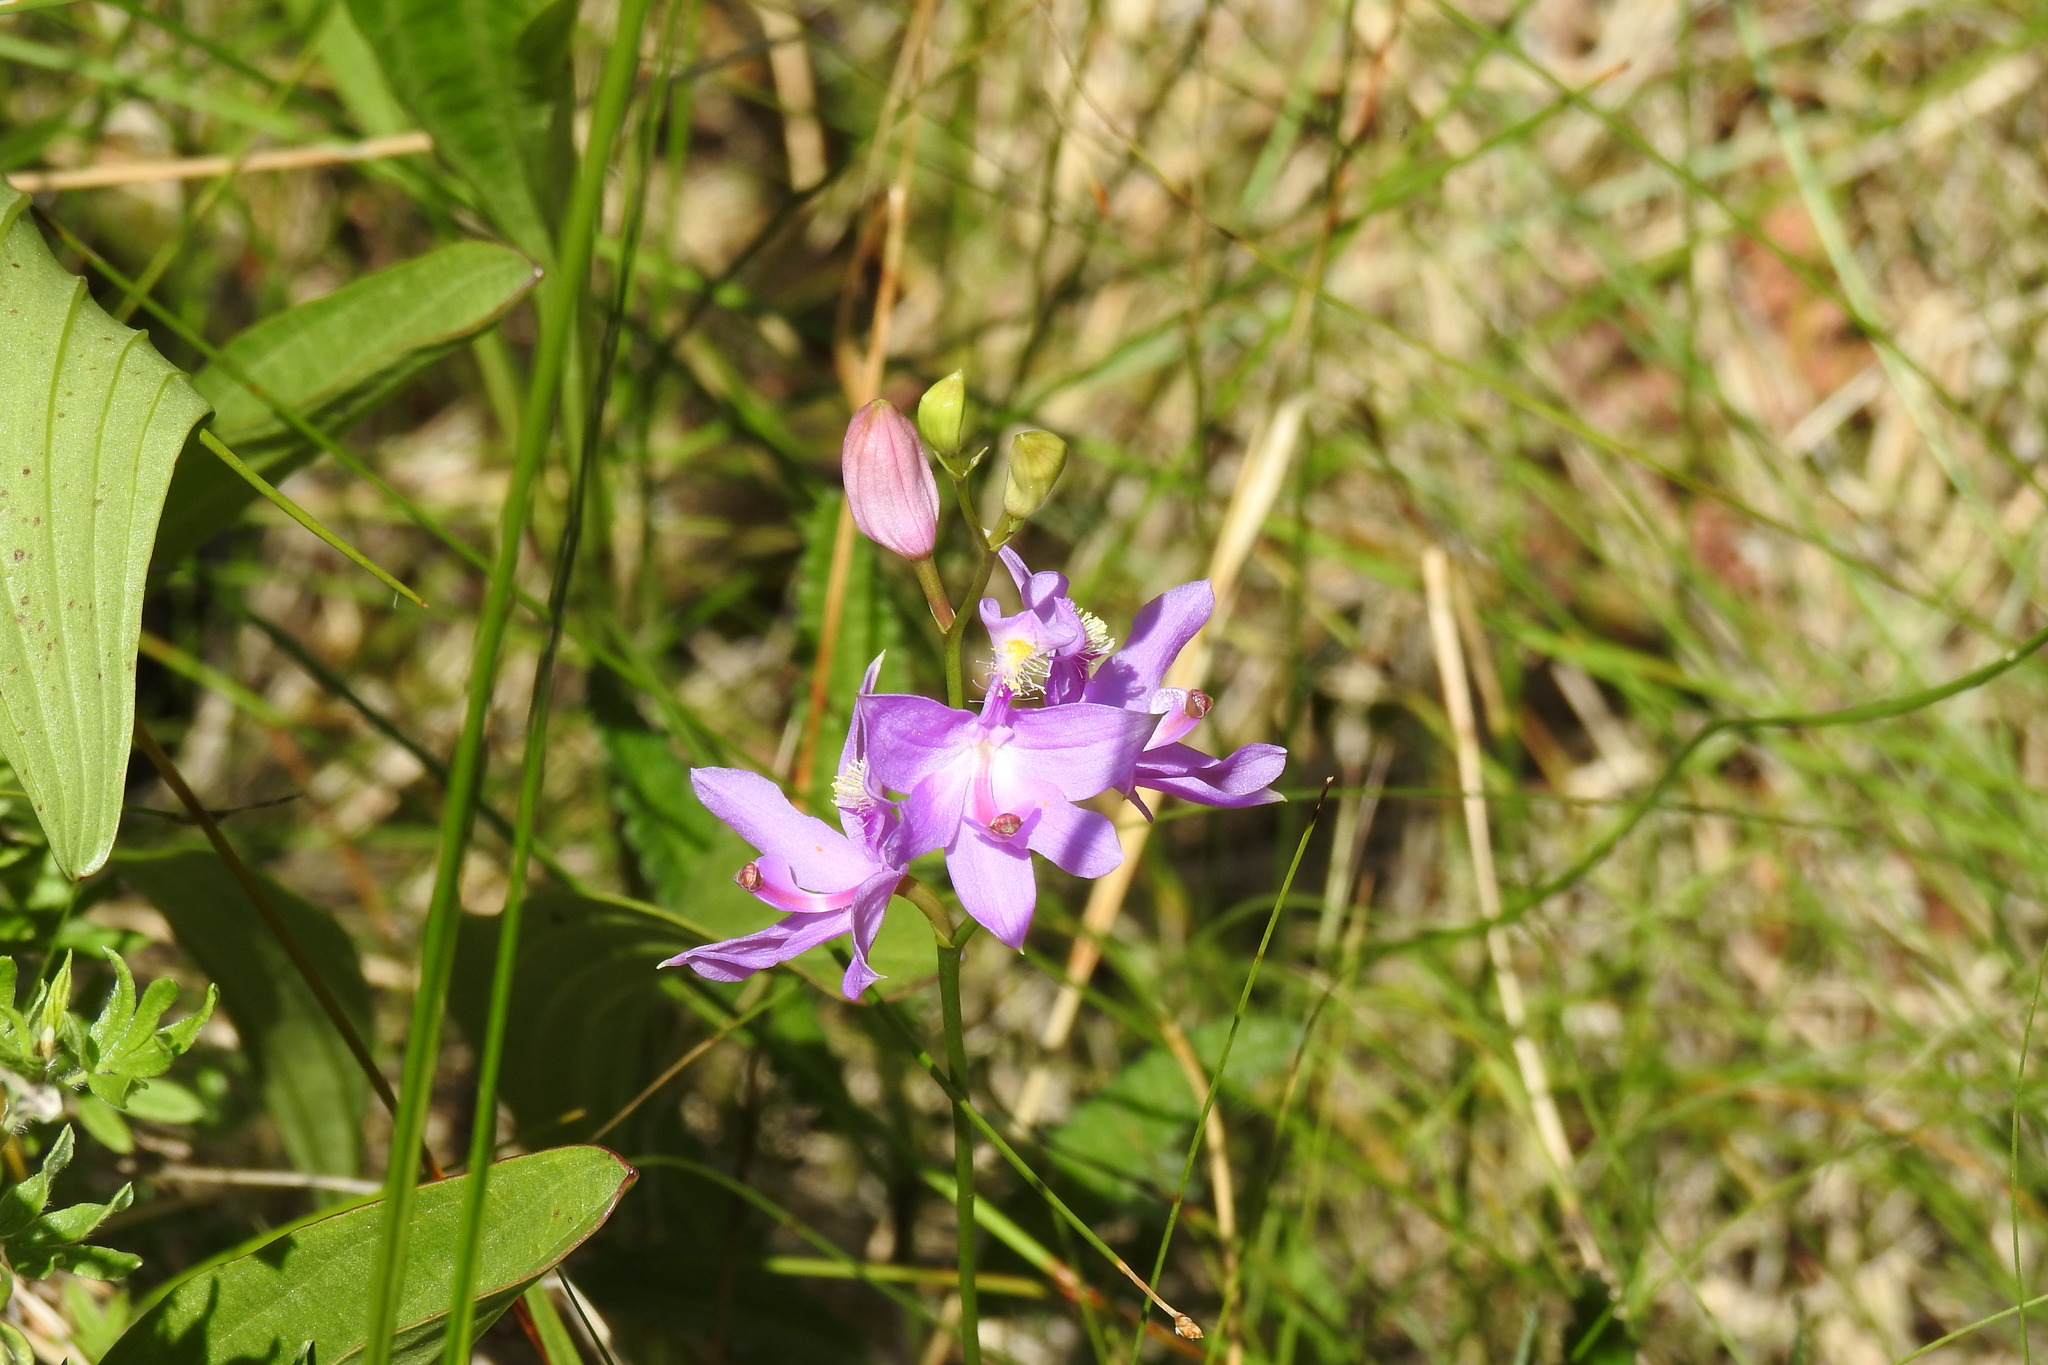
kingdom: Plantae
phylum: Tracheophyta
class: Liliopsida
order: Asparagales
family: Orchidaceae
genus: Calopogon
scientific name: Calopogon tuberosus
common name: Grass-pink
